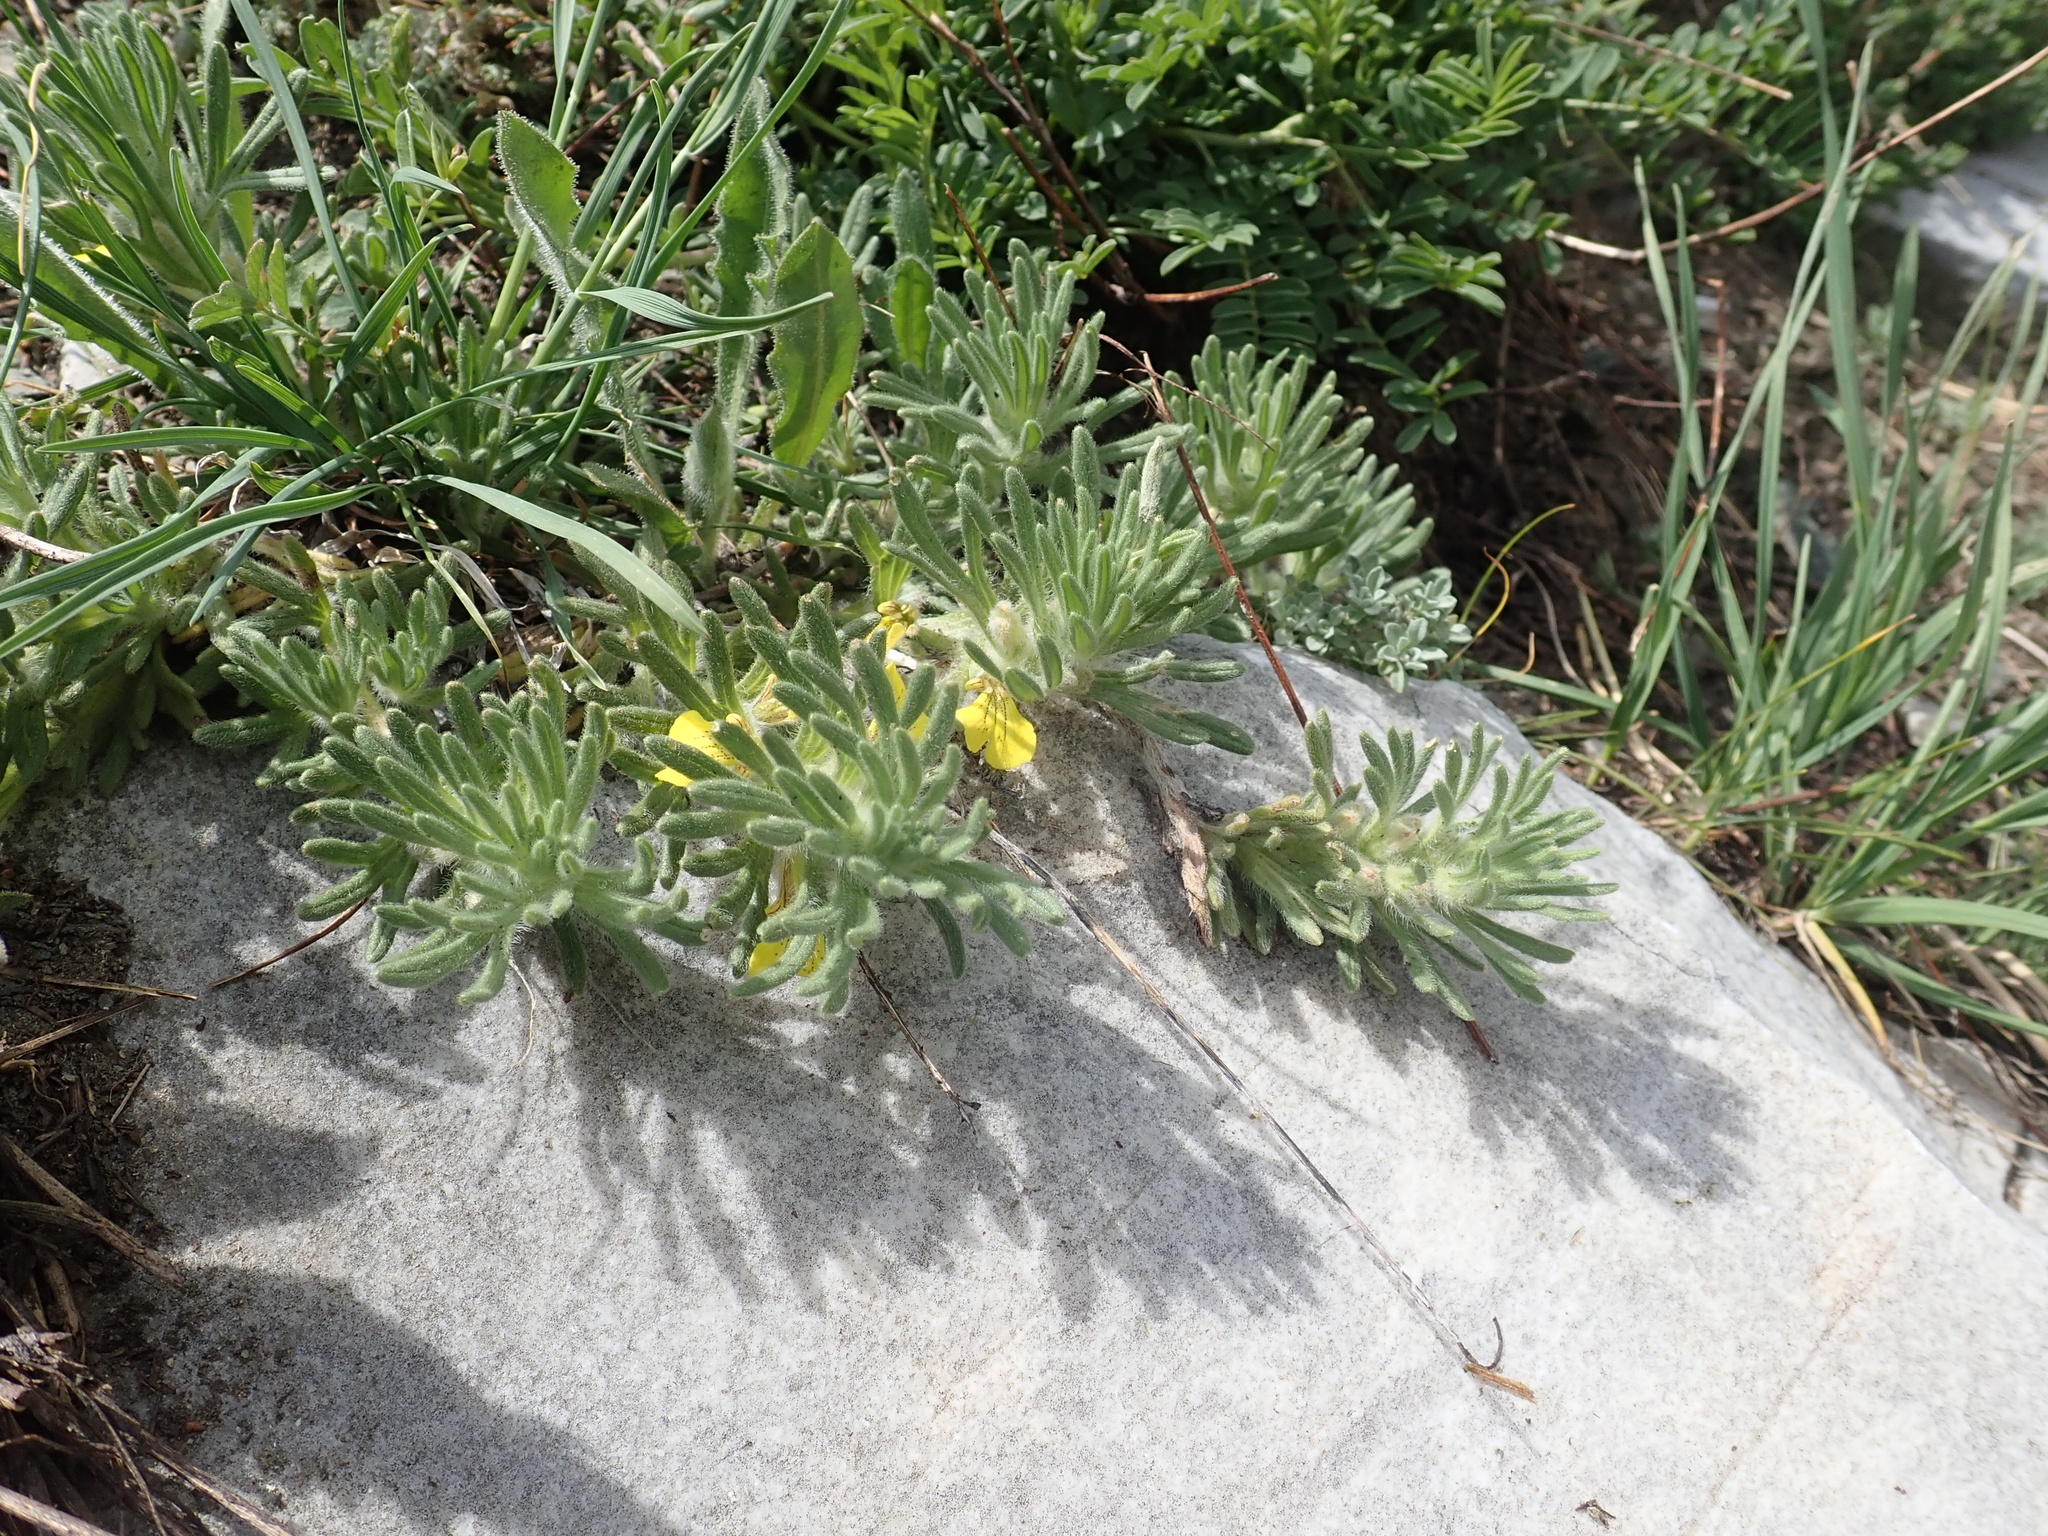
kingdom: Plantae
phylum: Tracheophyta
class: Magnoliopsida
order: Lamiales
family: Lamiaceae
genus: Ajuga
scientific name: Ajuga chamaepitys
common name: Ground-pine
